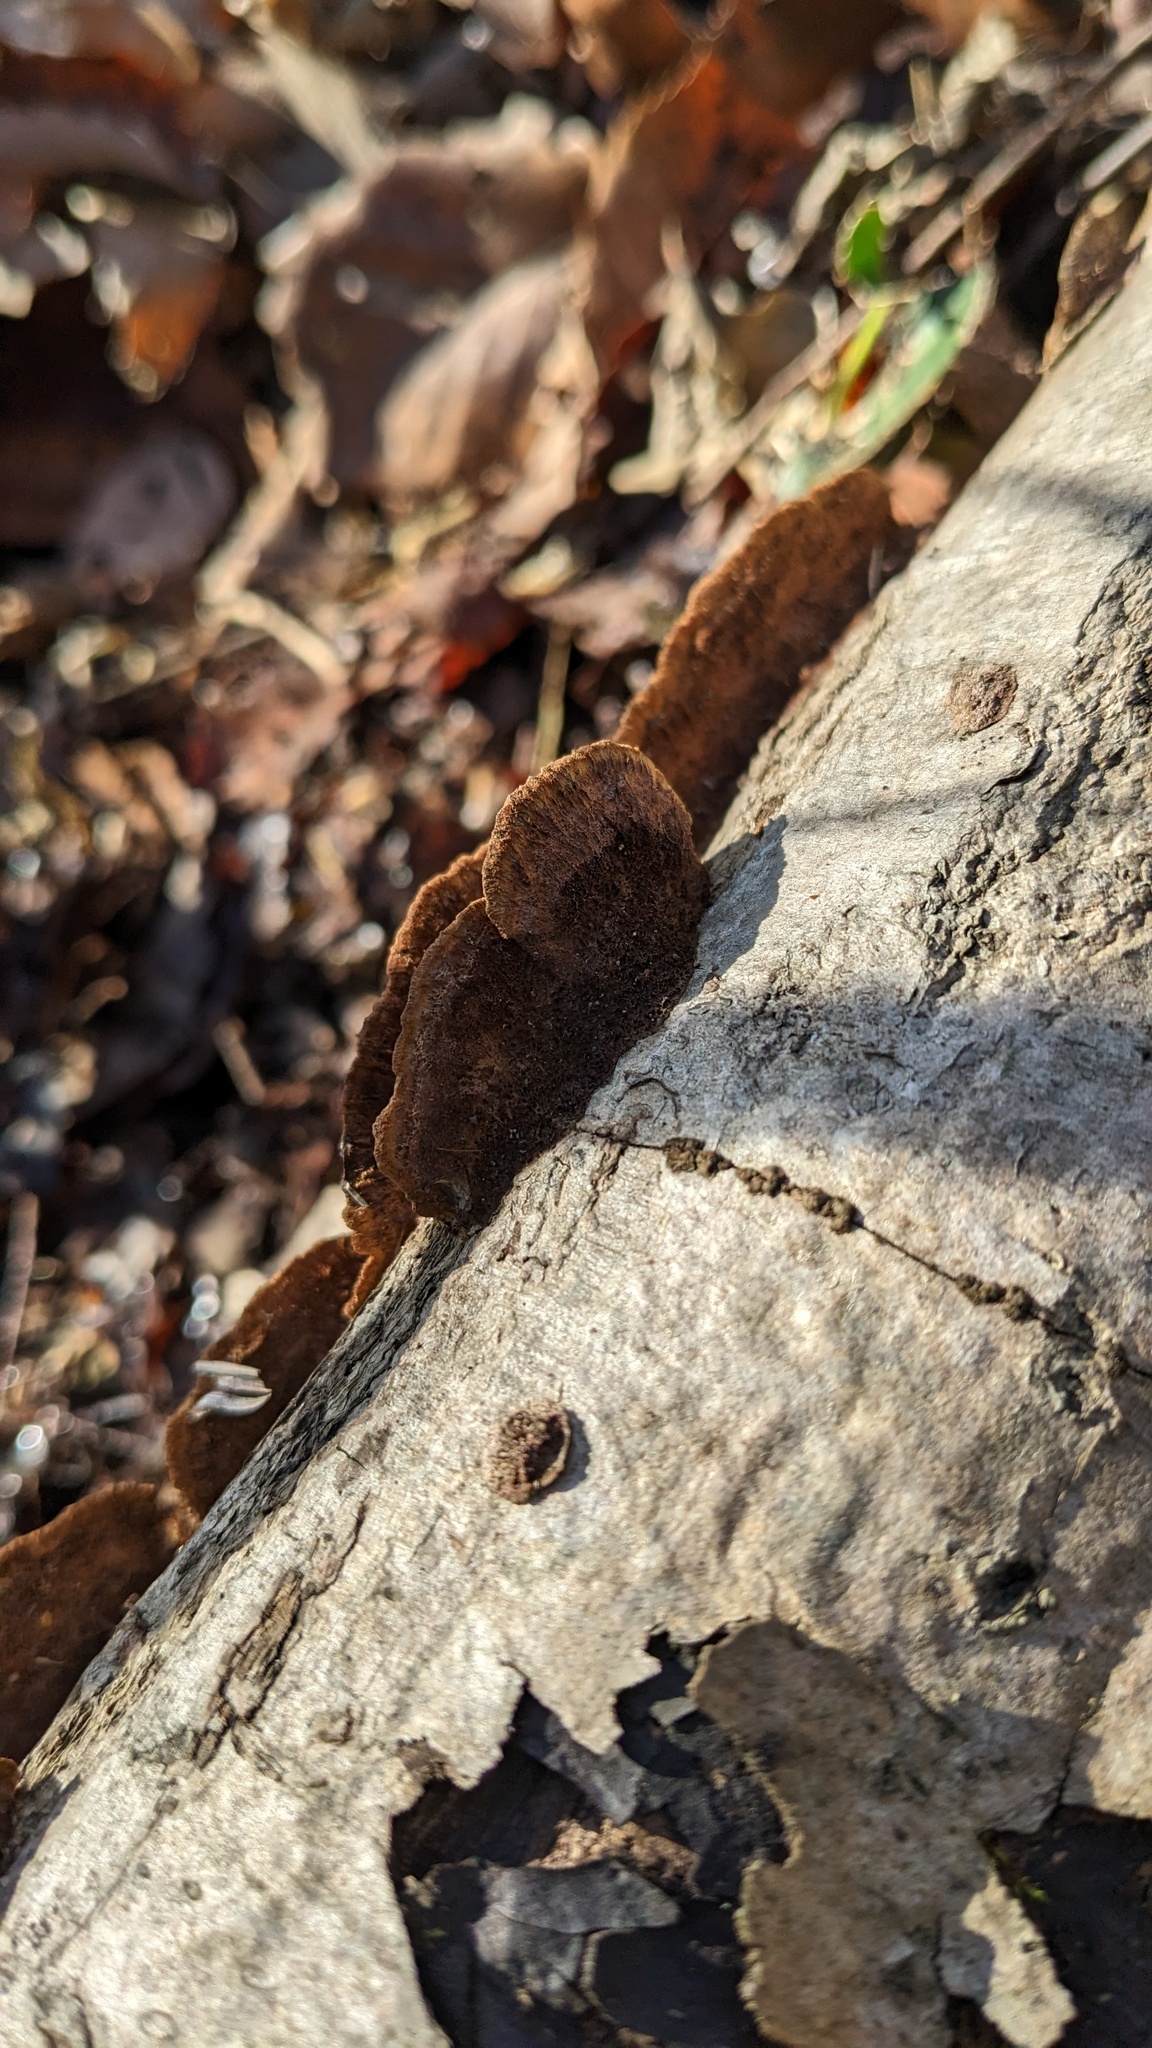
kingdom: Fungi
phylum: Basidiomycota
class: Agaricomycetes
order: Hymenochaetales
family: Hymenochaetaceae
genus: Phellinus
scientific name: Phellinus gilvus
